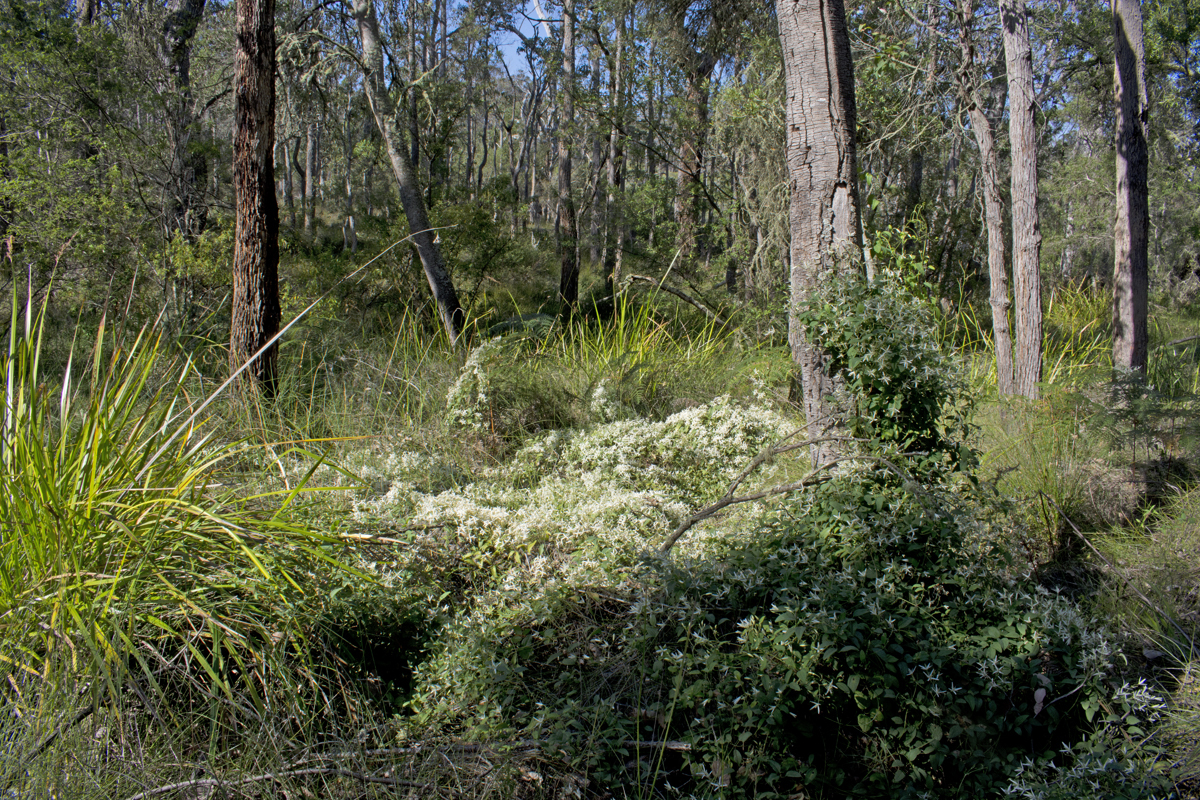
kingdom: Plantae
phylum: Tracheophyta
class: Magnoliopsida
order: Ranunculales
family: Ranunculaceae
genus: Clematis
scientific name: Clematis pubescens
